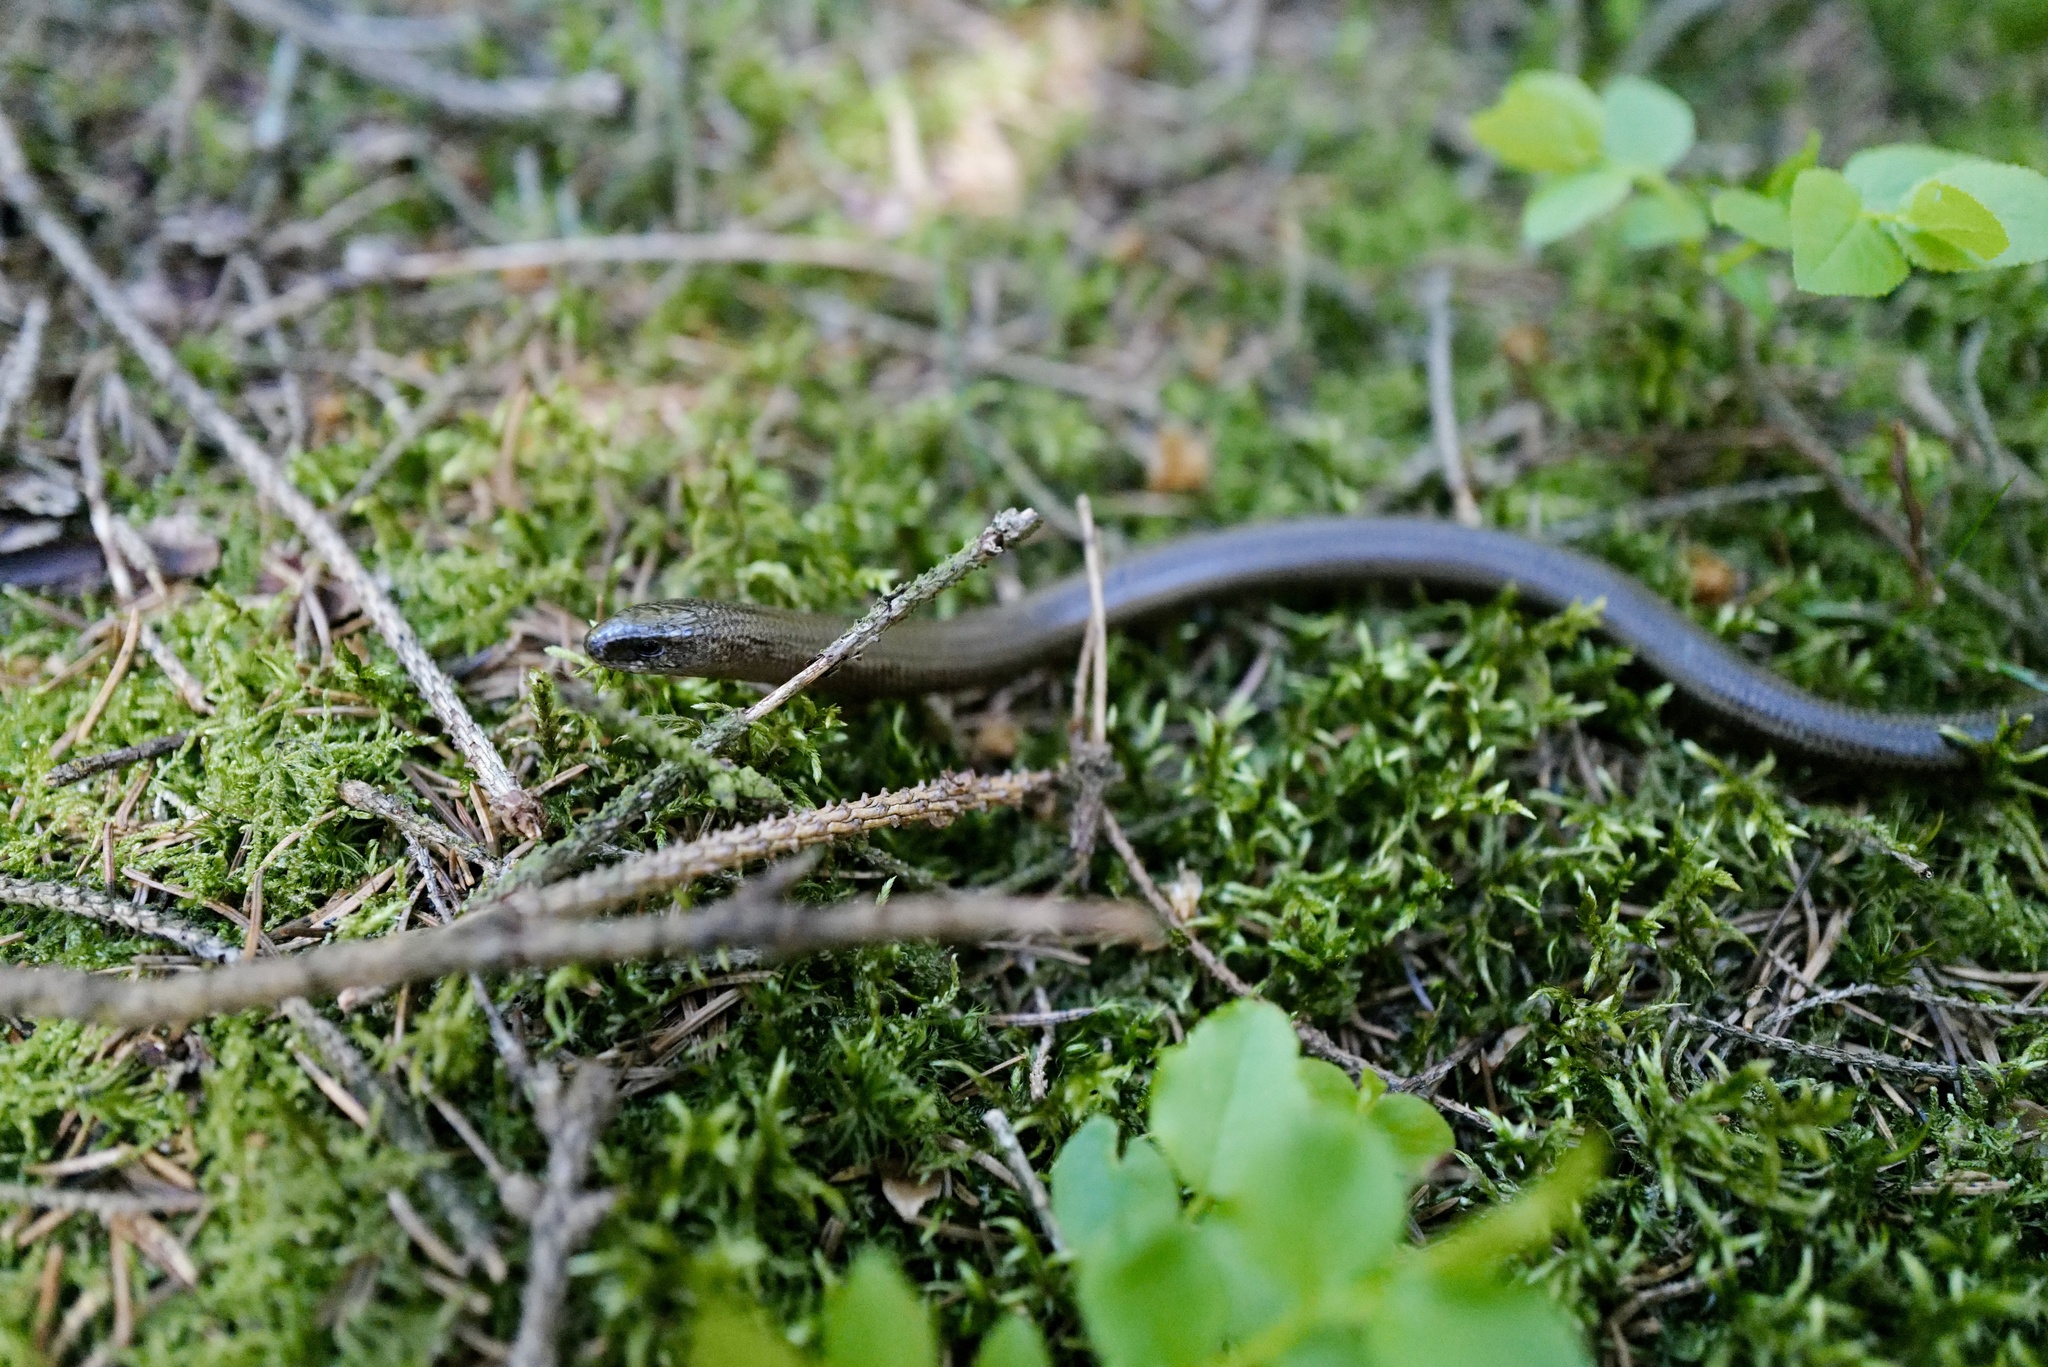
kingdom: Animalia
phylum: Chordata
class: Squamata
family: Anguidae
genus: Anguis
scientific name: Anguis fragilis
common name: Slow worm
